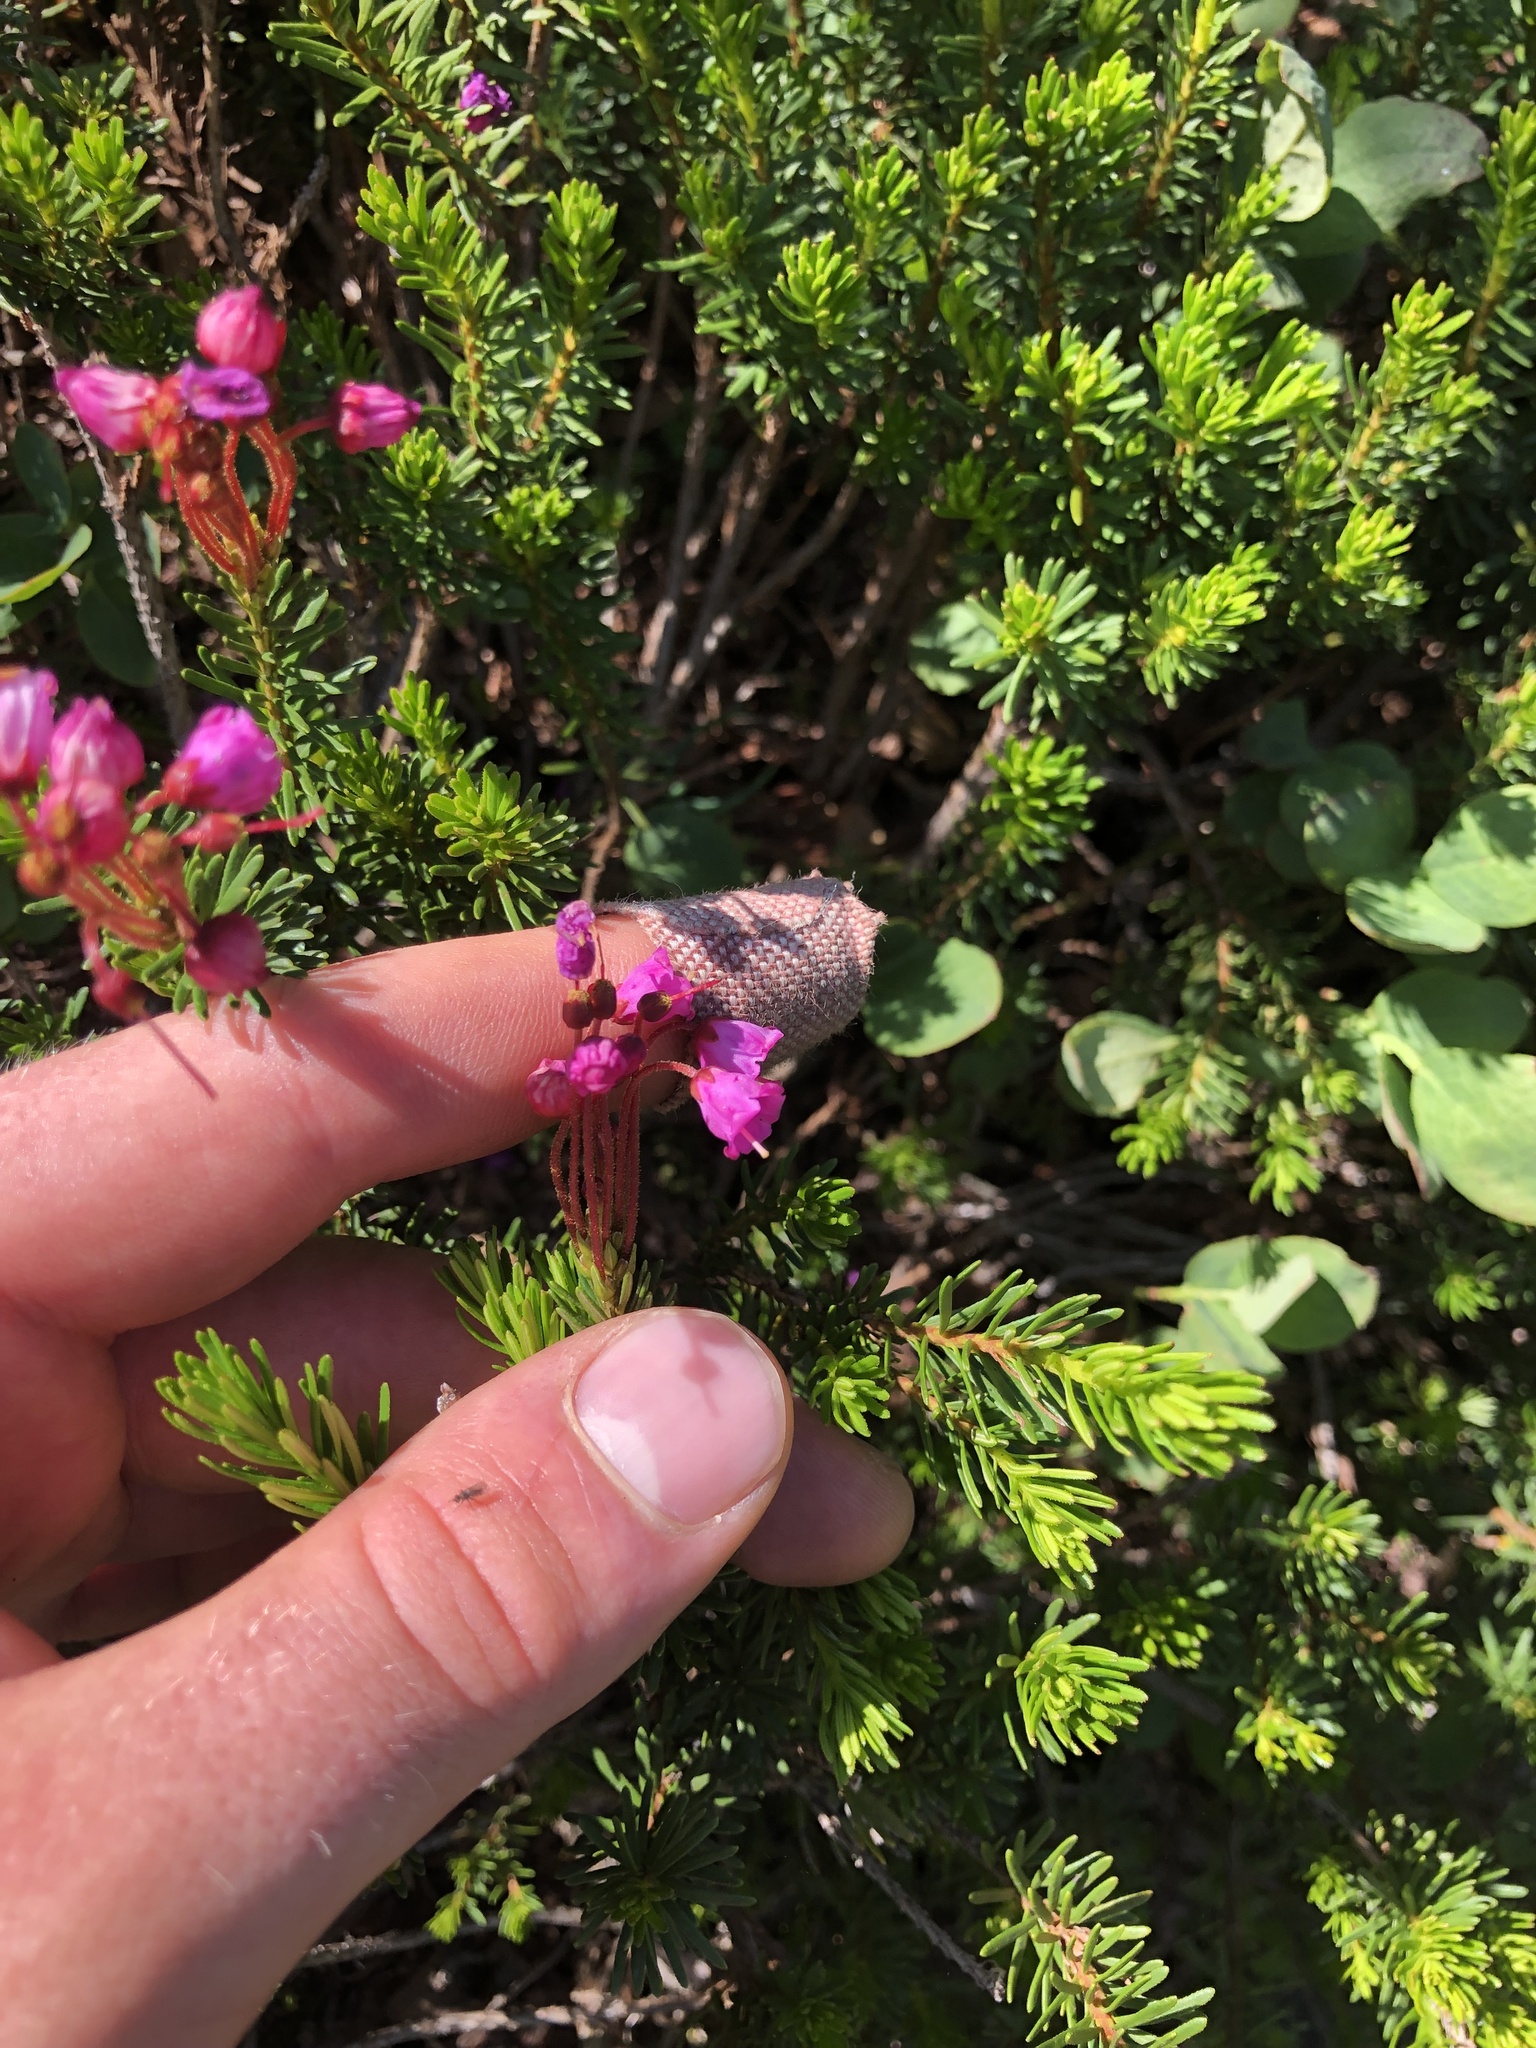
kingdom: Plantae
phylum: Tracheophyta
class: Magnoliopsida
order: Ericales
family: Ericaceae
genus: Phyllodoce
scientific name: Phyllodoce empetriformis
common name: Pink mountain heather
